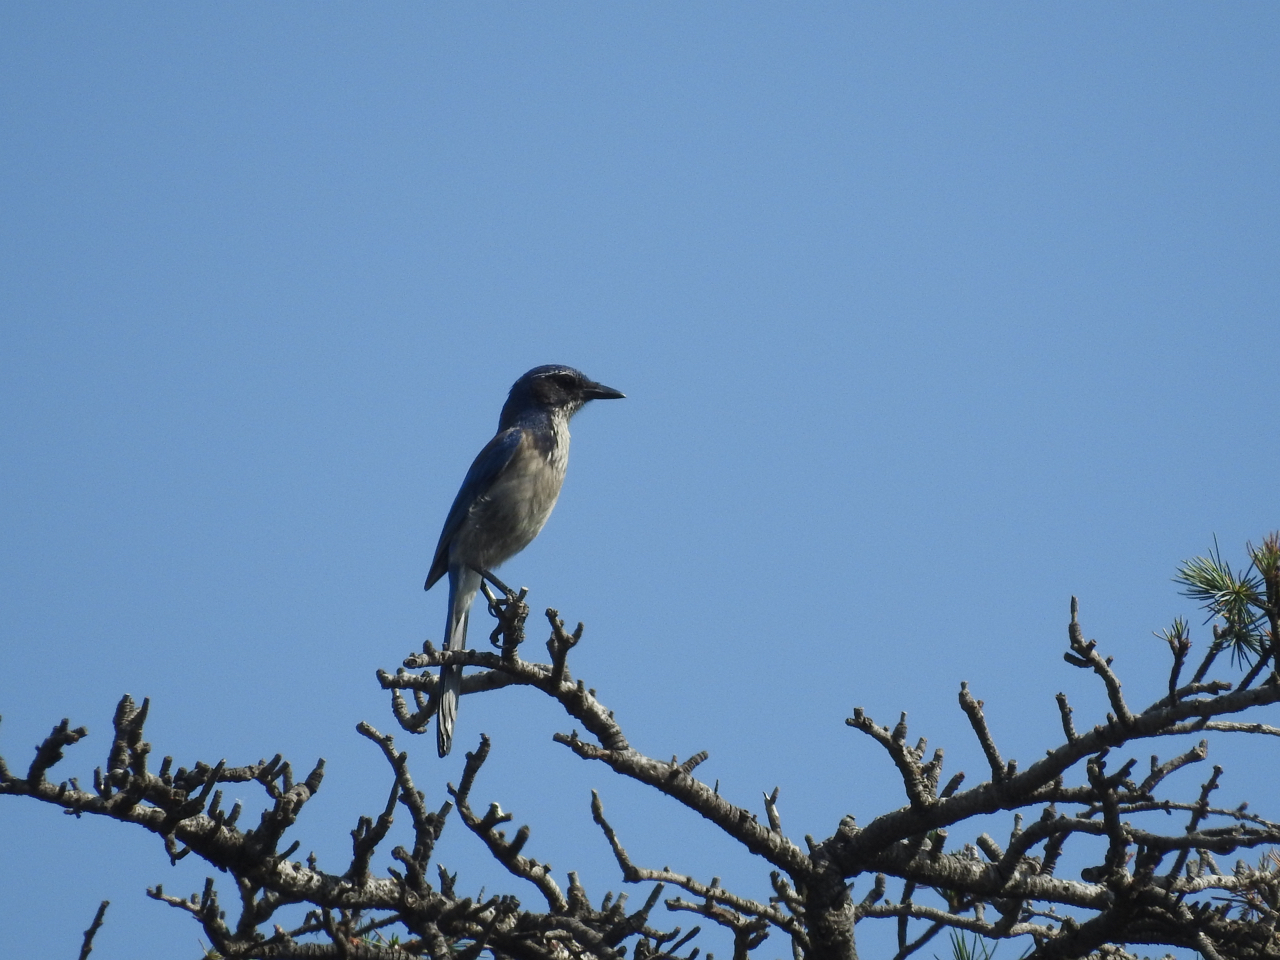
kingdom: Animalia
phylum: Chordata
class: Aves
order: Passeriformes
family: Corvidae
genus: Aphelocoma
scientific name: Aphelocoma californica
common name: California scrub-jay
